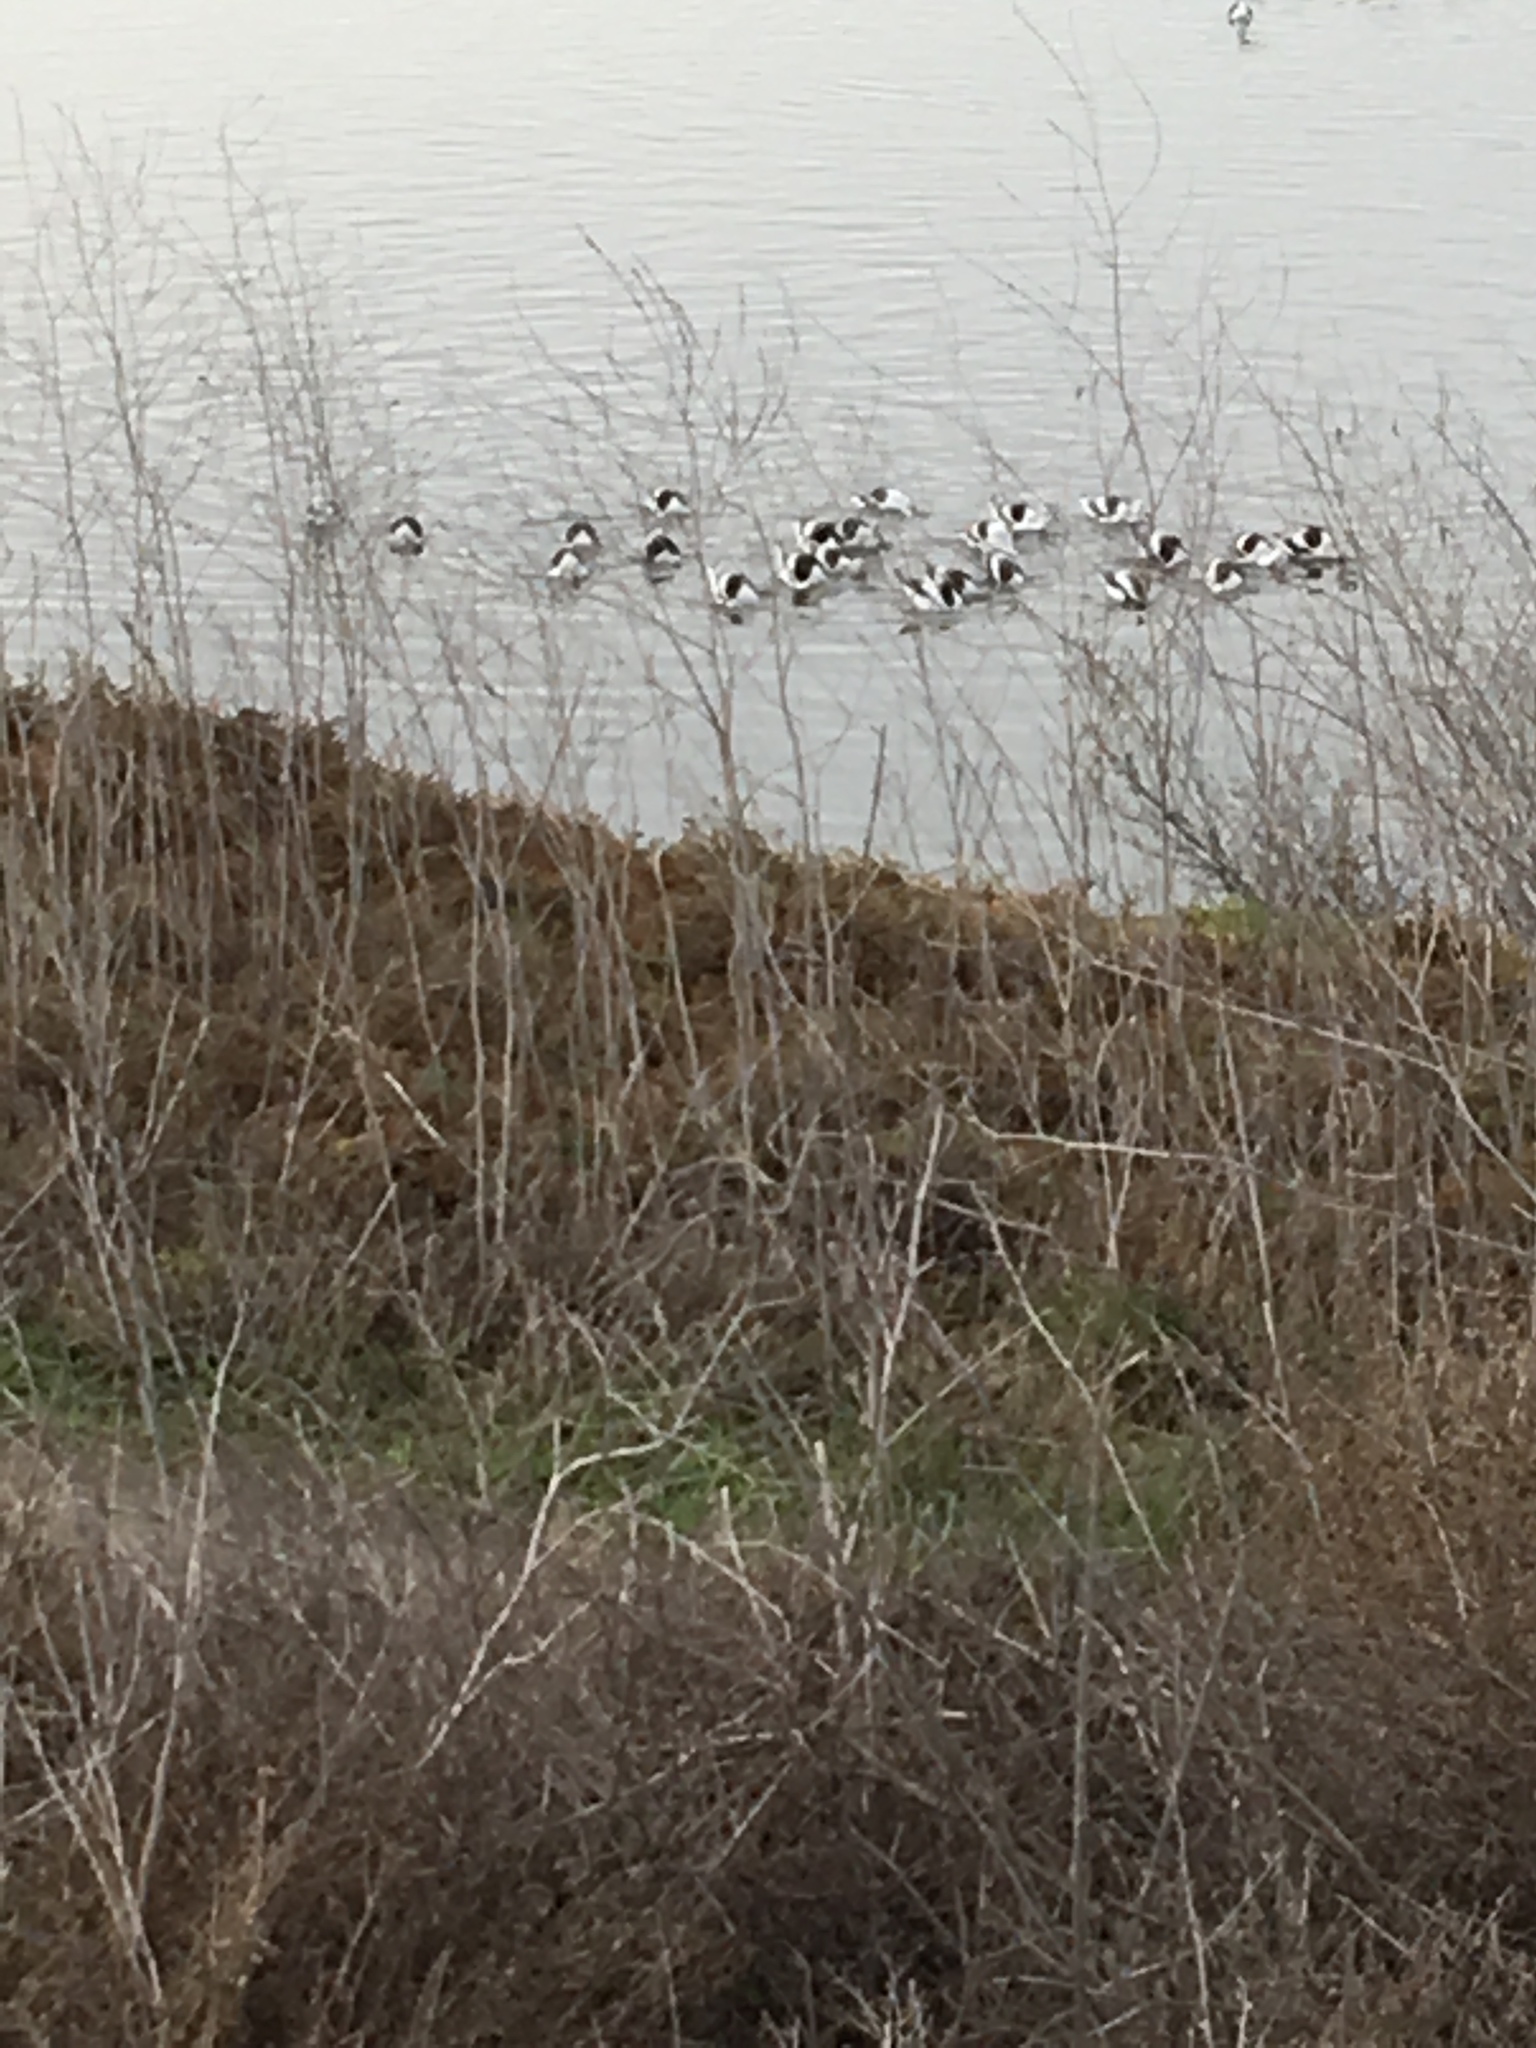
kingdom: Animalia
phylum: Chordata
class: Aves
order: Charadriiformes
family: Recurvirostridae
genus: Recurvirostra
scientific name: Recurvirostra americana
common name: American avocet
